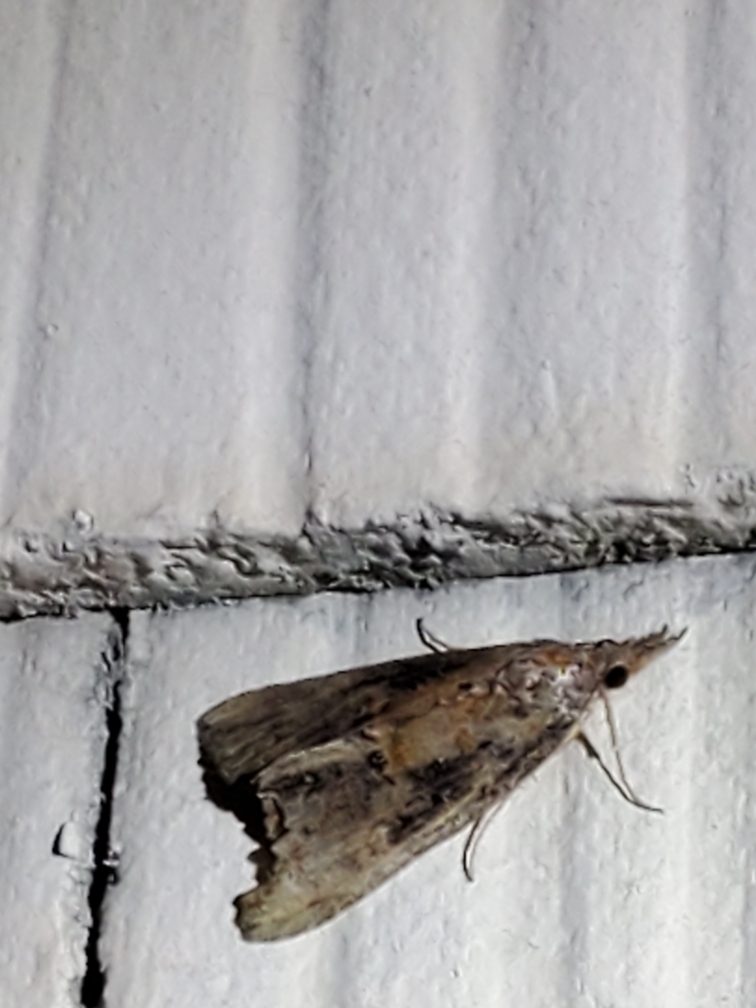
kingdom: Animalia
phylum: Arthropoda
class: Insecta
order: Lepidoptera
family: Erebidae
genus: Hypena
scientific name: Hypena scabra
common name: Green cloverworm
